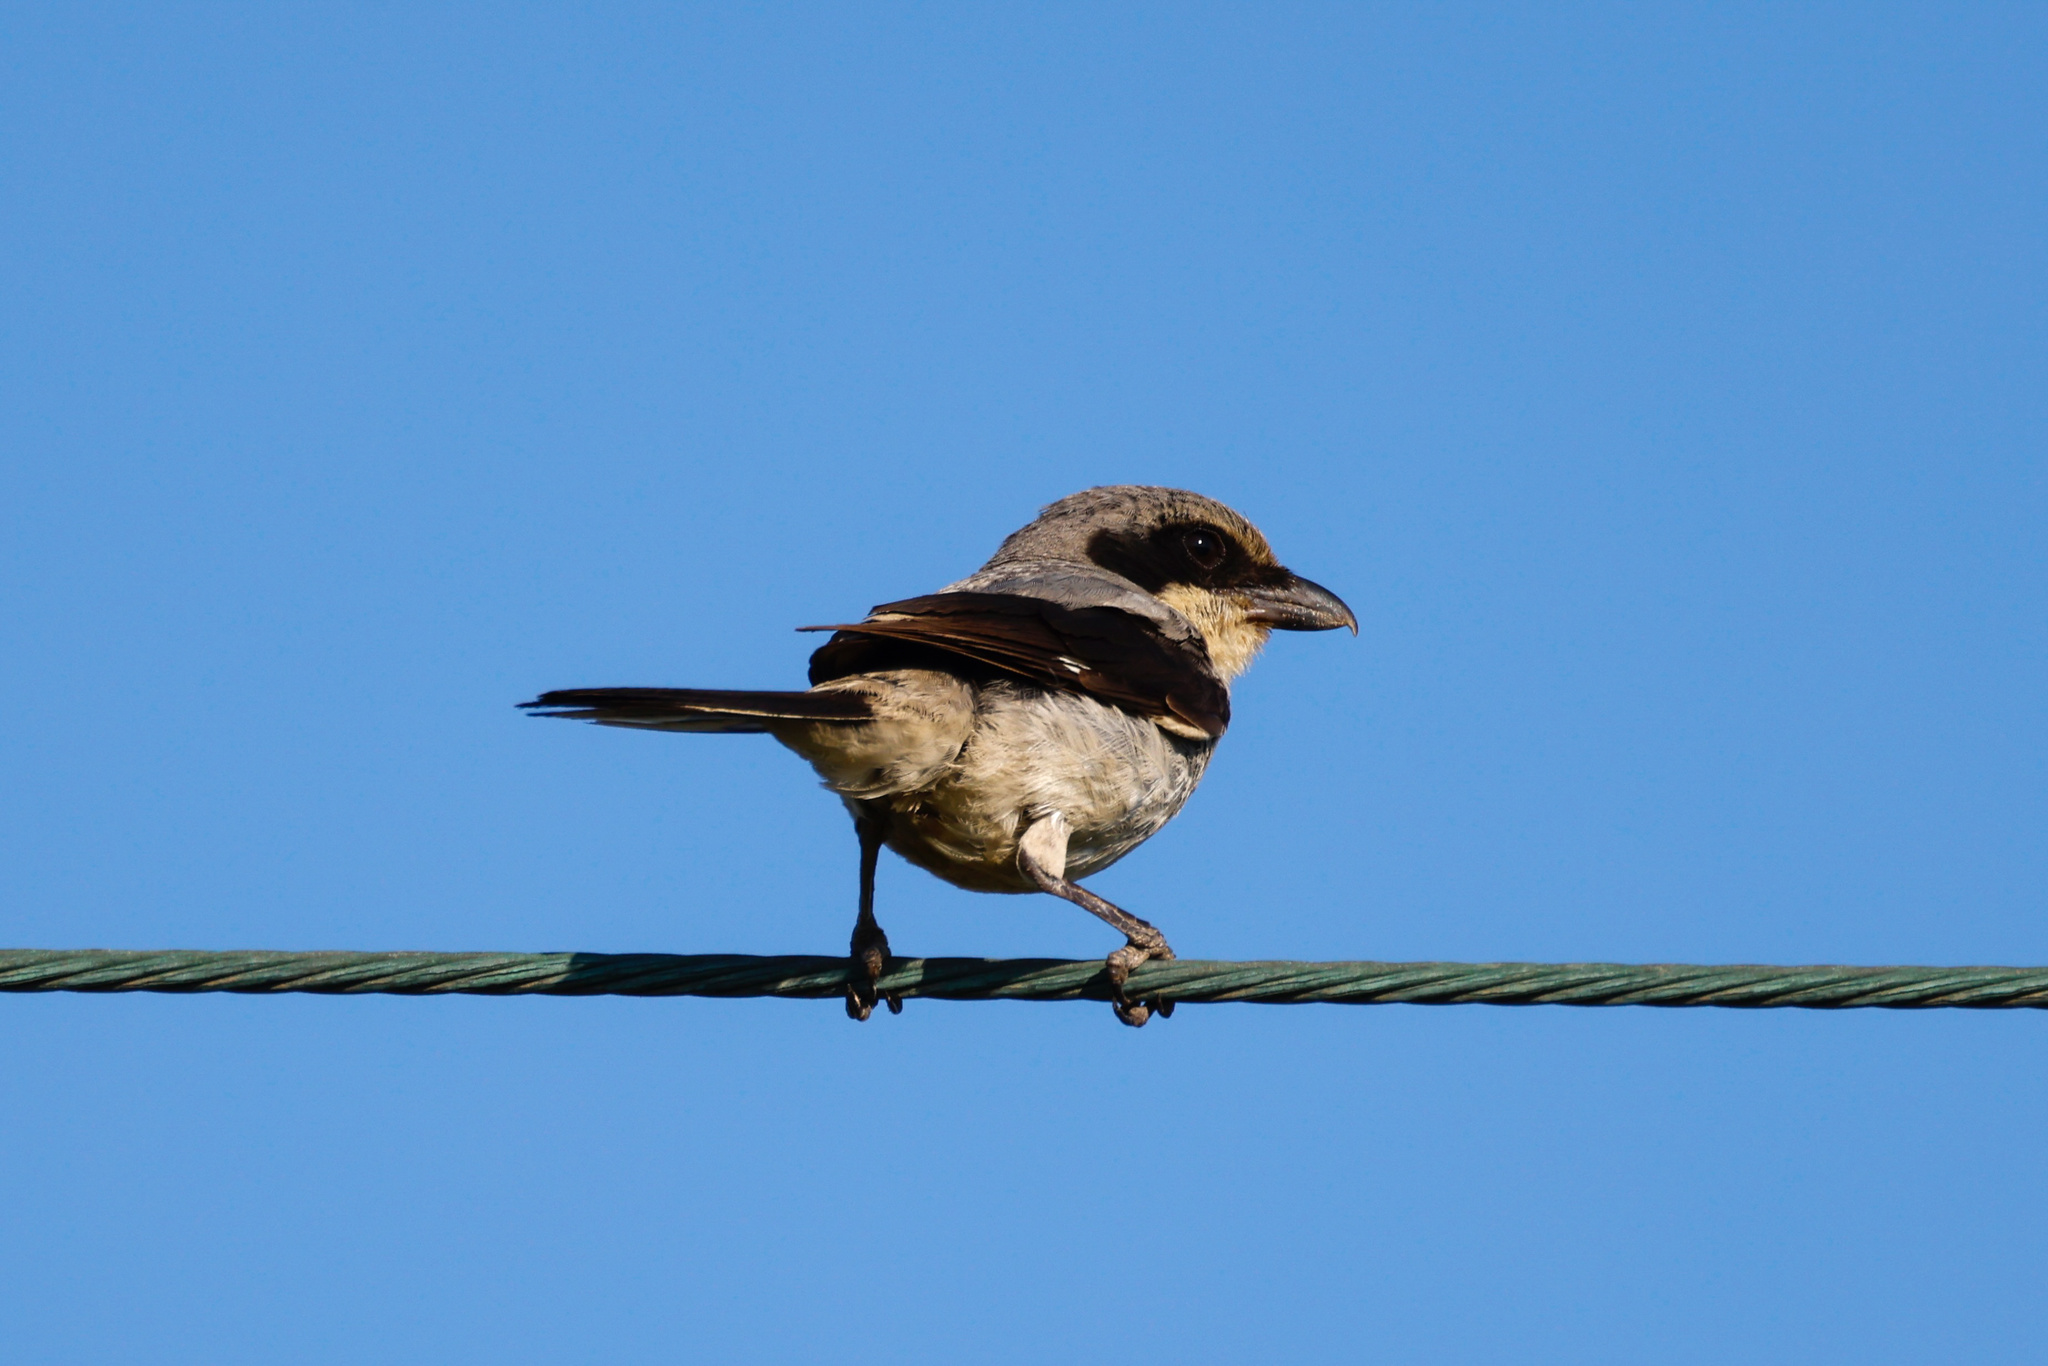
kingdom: Animalia
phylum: Chordata
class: Aves
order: Passeriformes
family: Laniidae
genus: Lanius
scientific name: Lanius ludovicianus
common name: Loggerhead shrike
